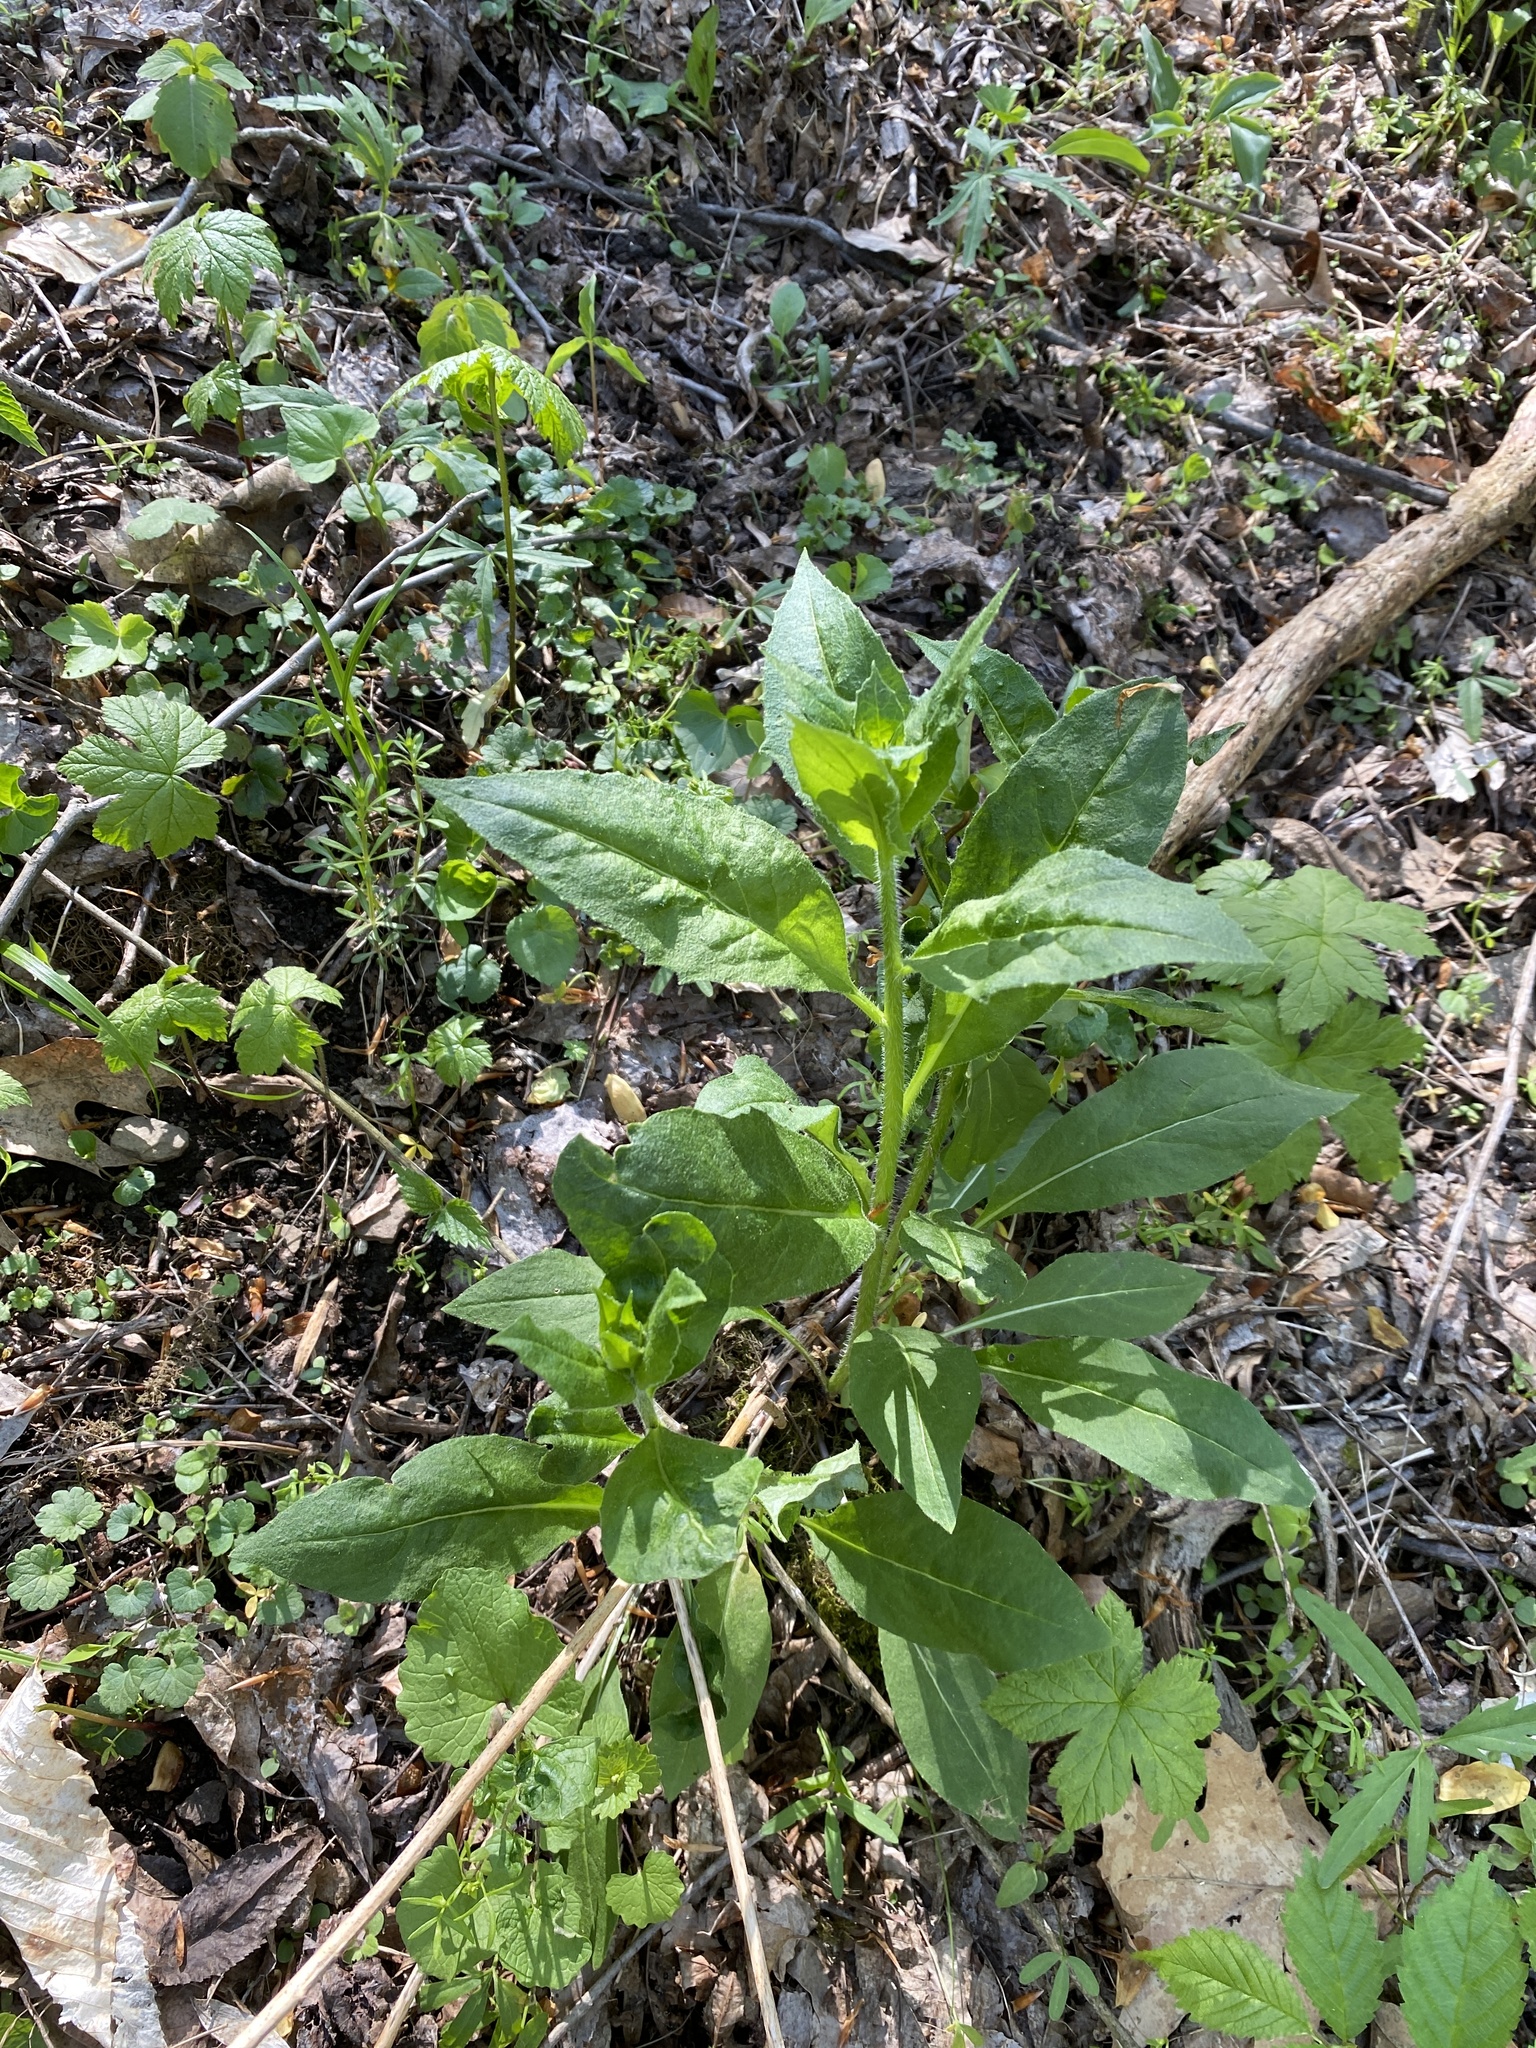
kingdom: Plantae
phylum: Tracheophyta
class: Magnoliopsida
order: Brassicales
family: Brassicaceae
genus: Hesperis
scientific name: Hesperis matronalis
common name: Dame's-violet
